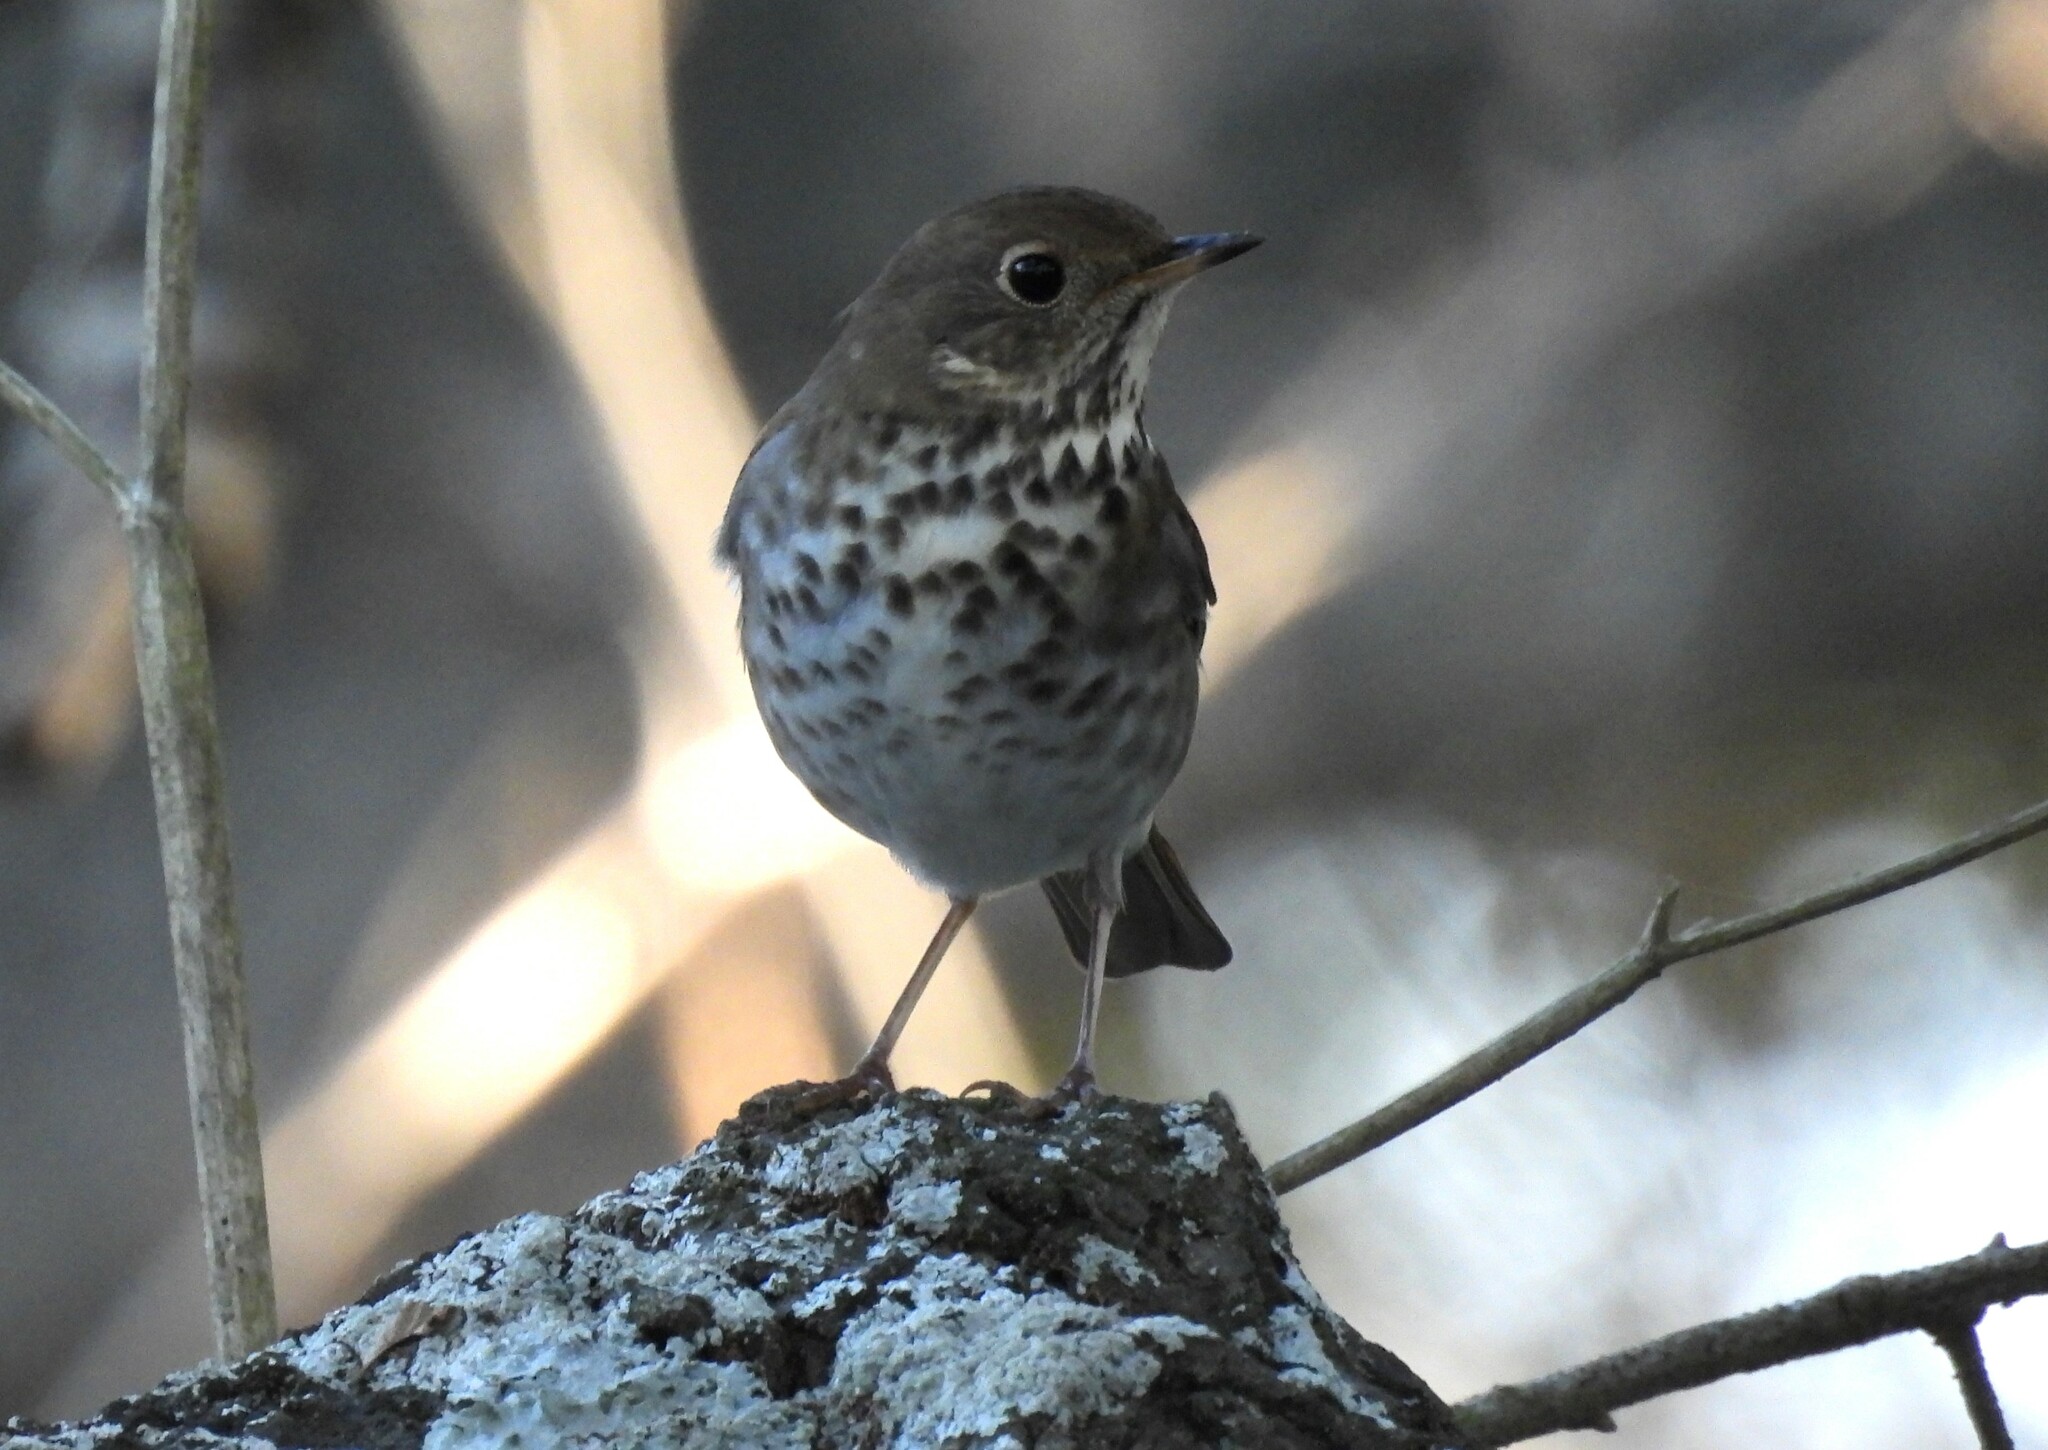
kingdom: Animalia
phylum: Chordata
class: Aves
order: Passeriformes
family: Turdidae
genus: Catharus
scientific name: Catharus guttatus
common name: Hermit thrush
